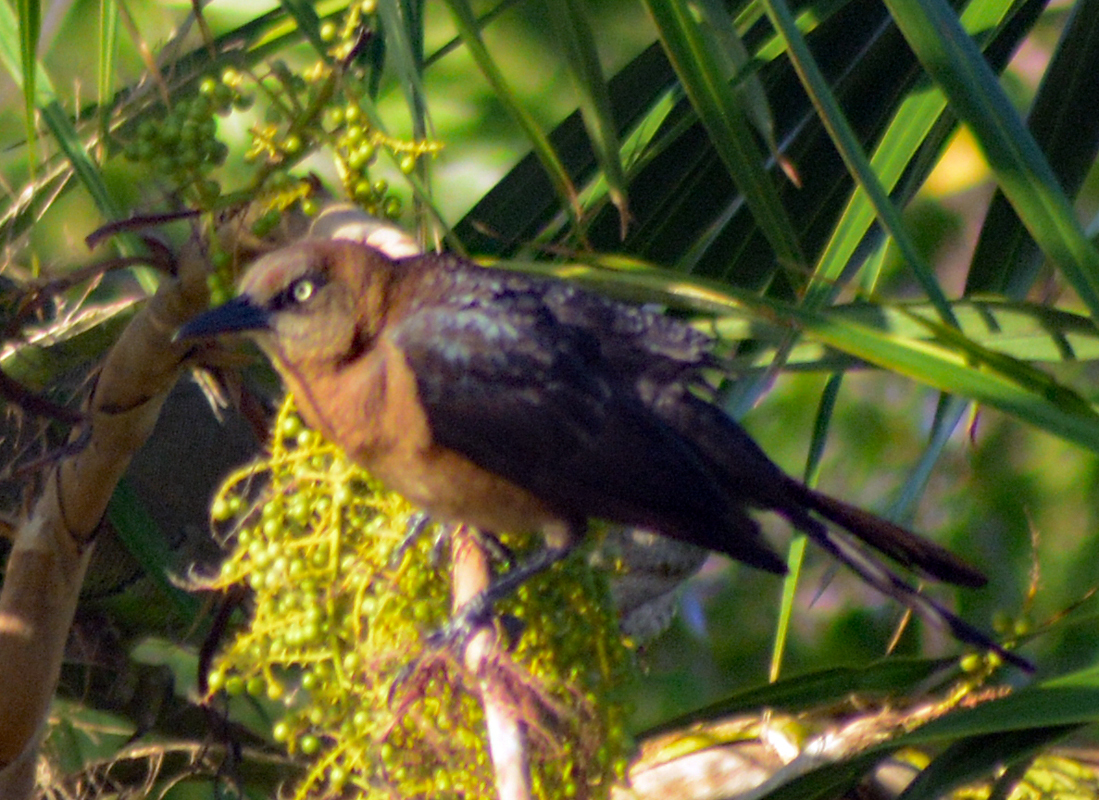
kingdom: Animalia
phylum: Chordata
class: Aves
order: Passeriformes
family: Icteridae
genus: Quiscalus
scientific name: Quiscalus mexicanus
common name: Great-tailed grackle
